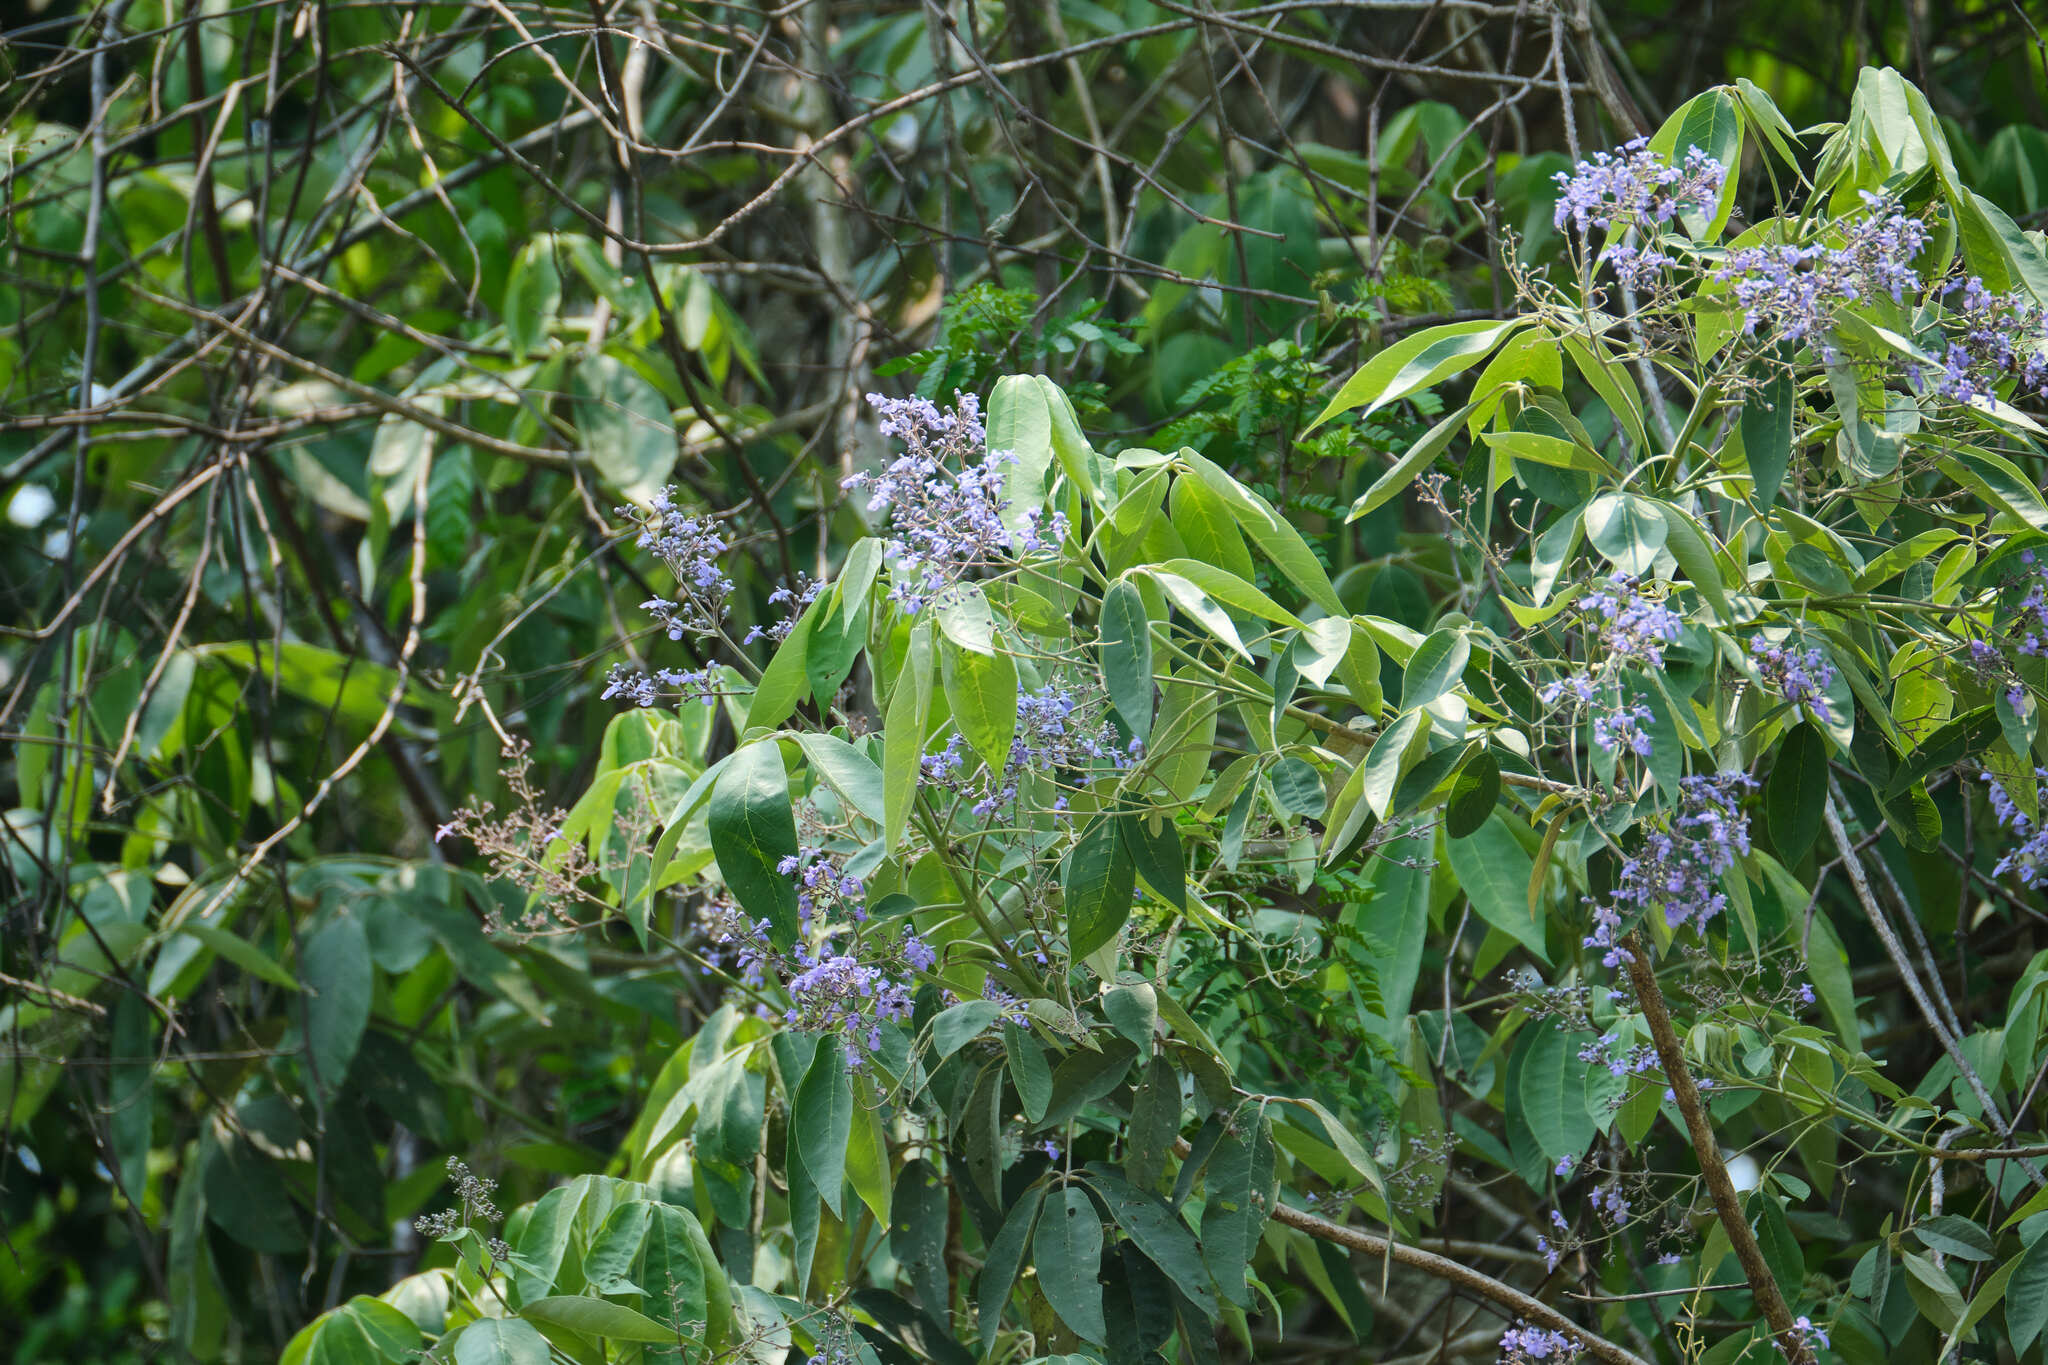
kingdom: Plantae
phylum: Tracheophyta
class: Magnoliopsida
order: Lamiales
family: Lamiaceae
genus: Vitex
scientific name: Vitex gaumeri
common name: Fiddlewood
